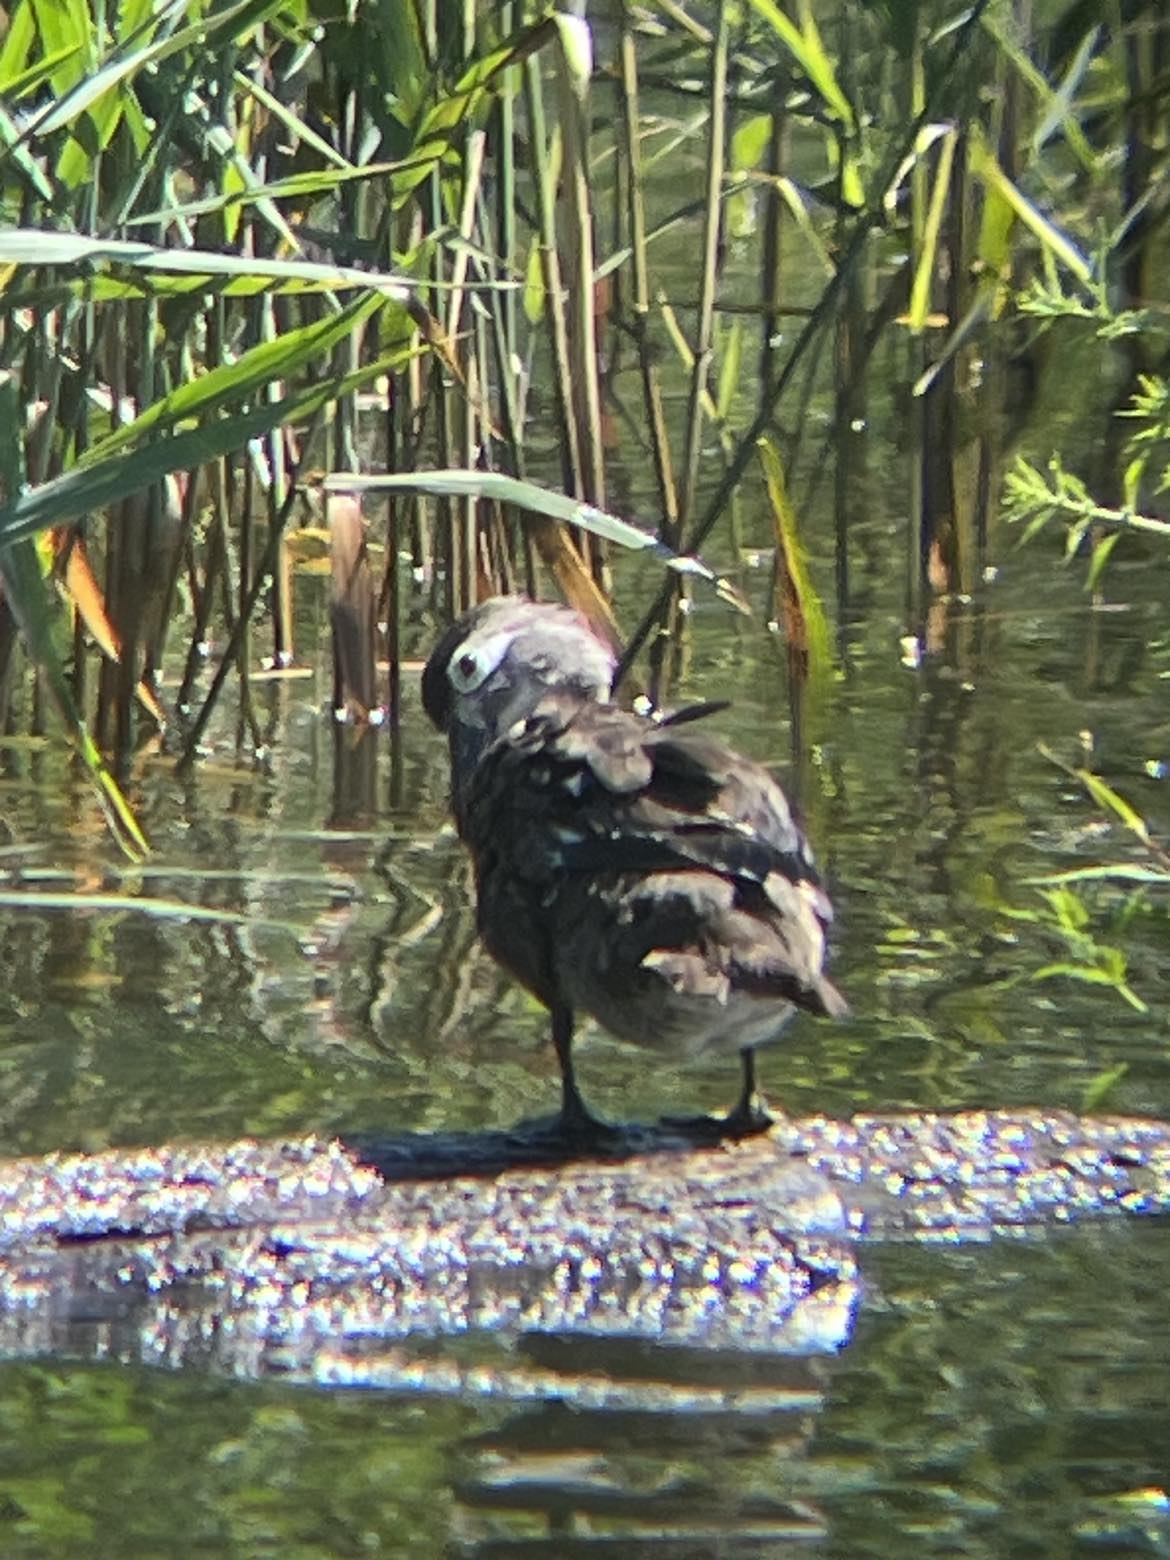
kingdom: Animalia
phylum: Chordata
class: Aves
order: Anseriformes
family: Anatidae
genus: Aix
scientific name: Aix sponsa
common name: Wood duck
